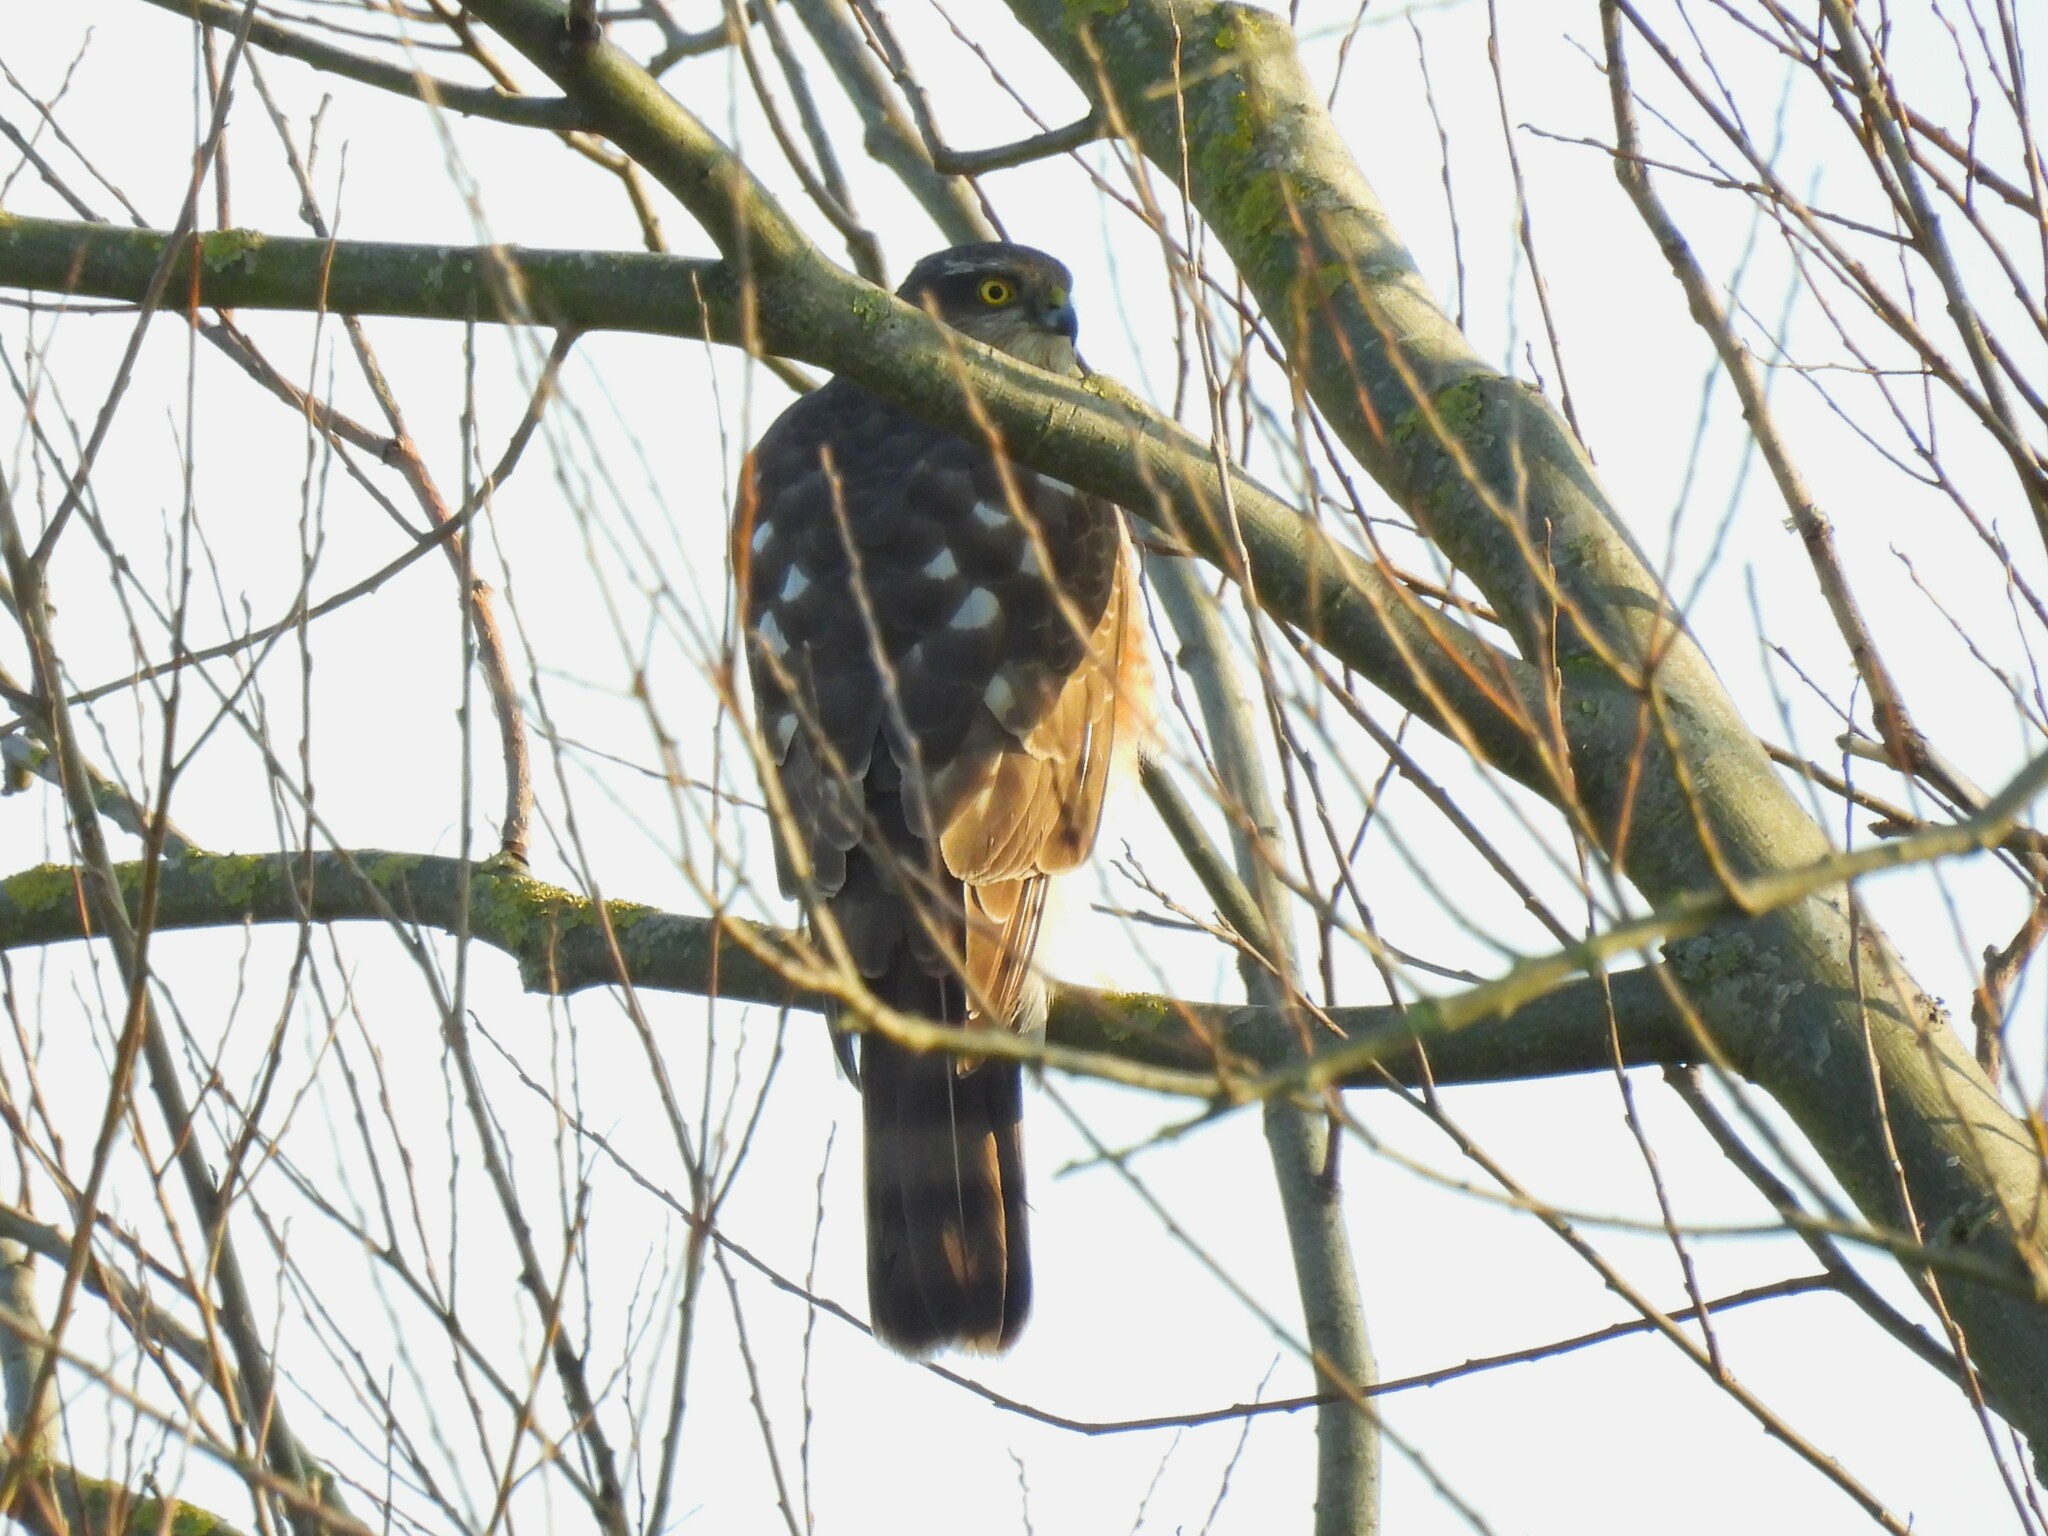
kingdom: Animalia
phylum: Chordata
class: Aves
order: Accipitriformes
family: Accipitridae
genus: Accipiter
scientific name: Accipiter nisus
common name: Eurasian sparrowhawk
